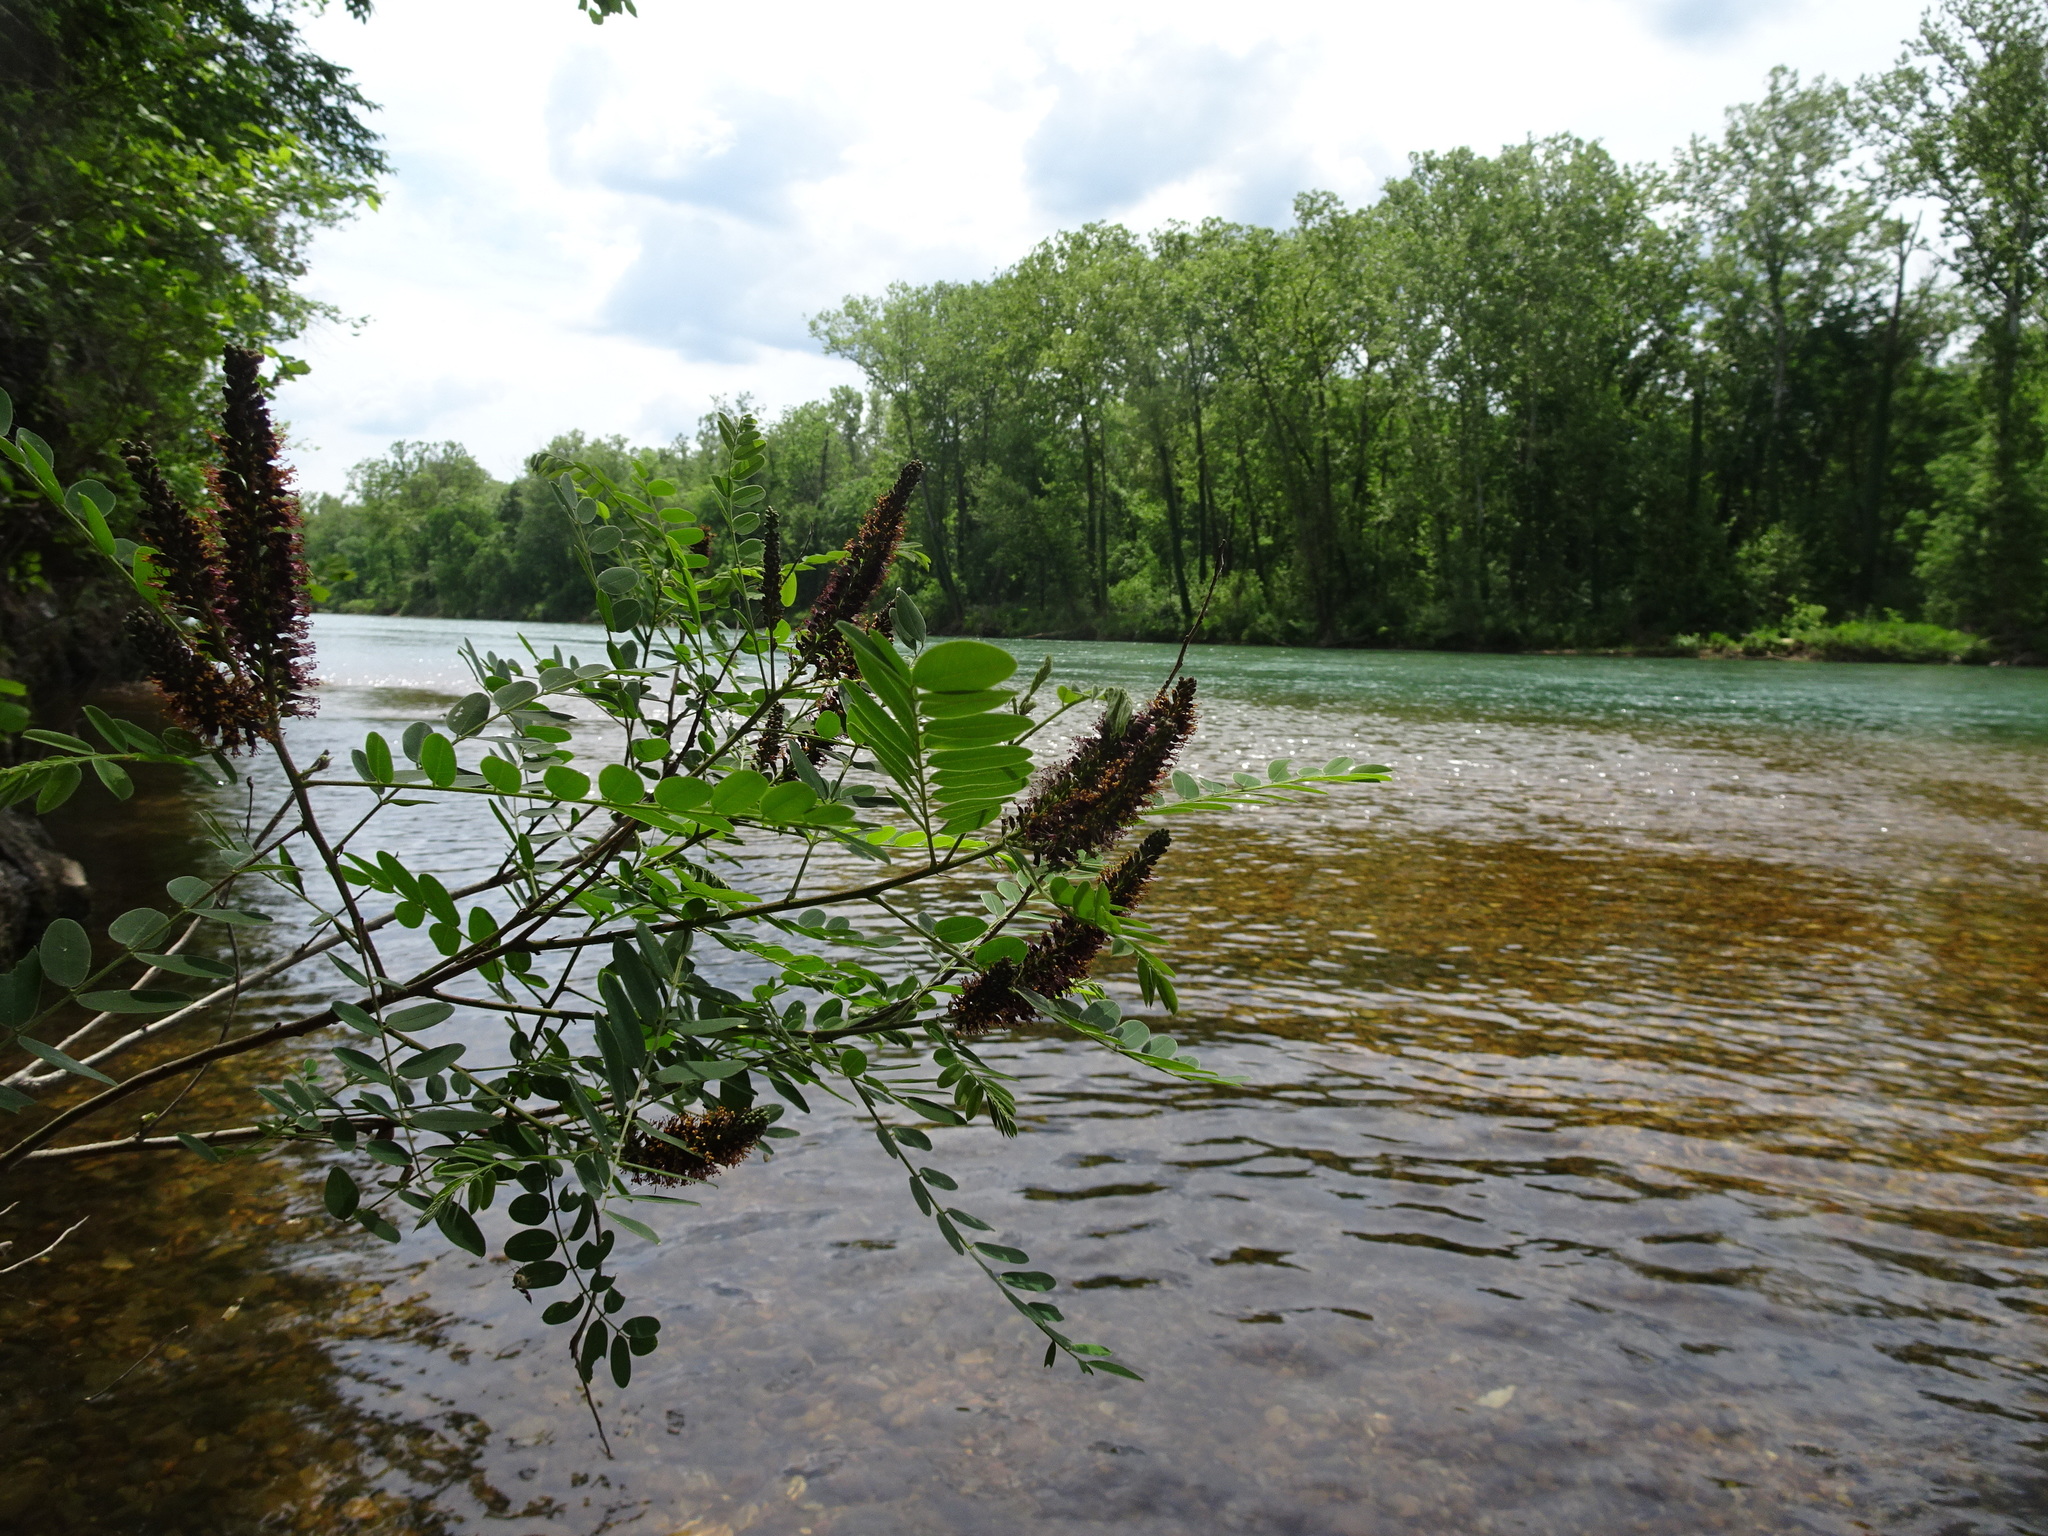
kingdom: Plantae
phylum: Tracheophyta
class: Magnoliopsida
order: Fabales
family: Fabaceae
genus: Amorpha
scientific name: Amorpha fruticosa
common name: False indigo
